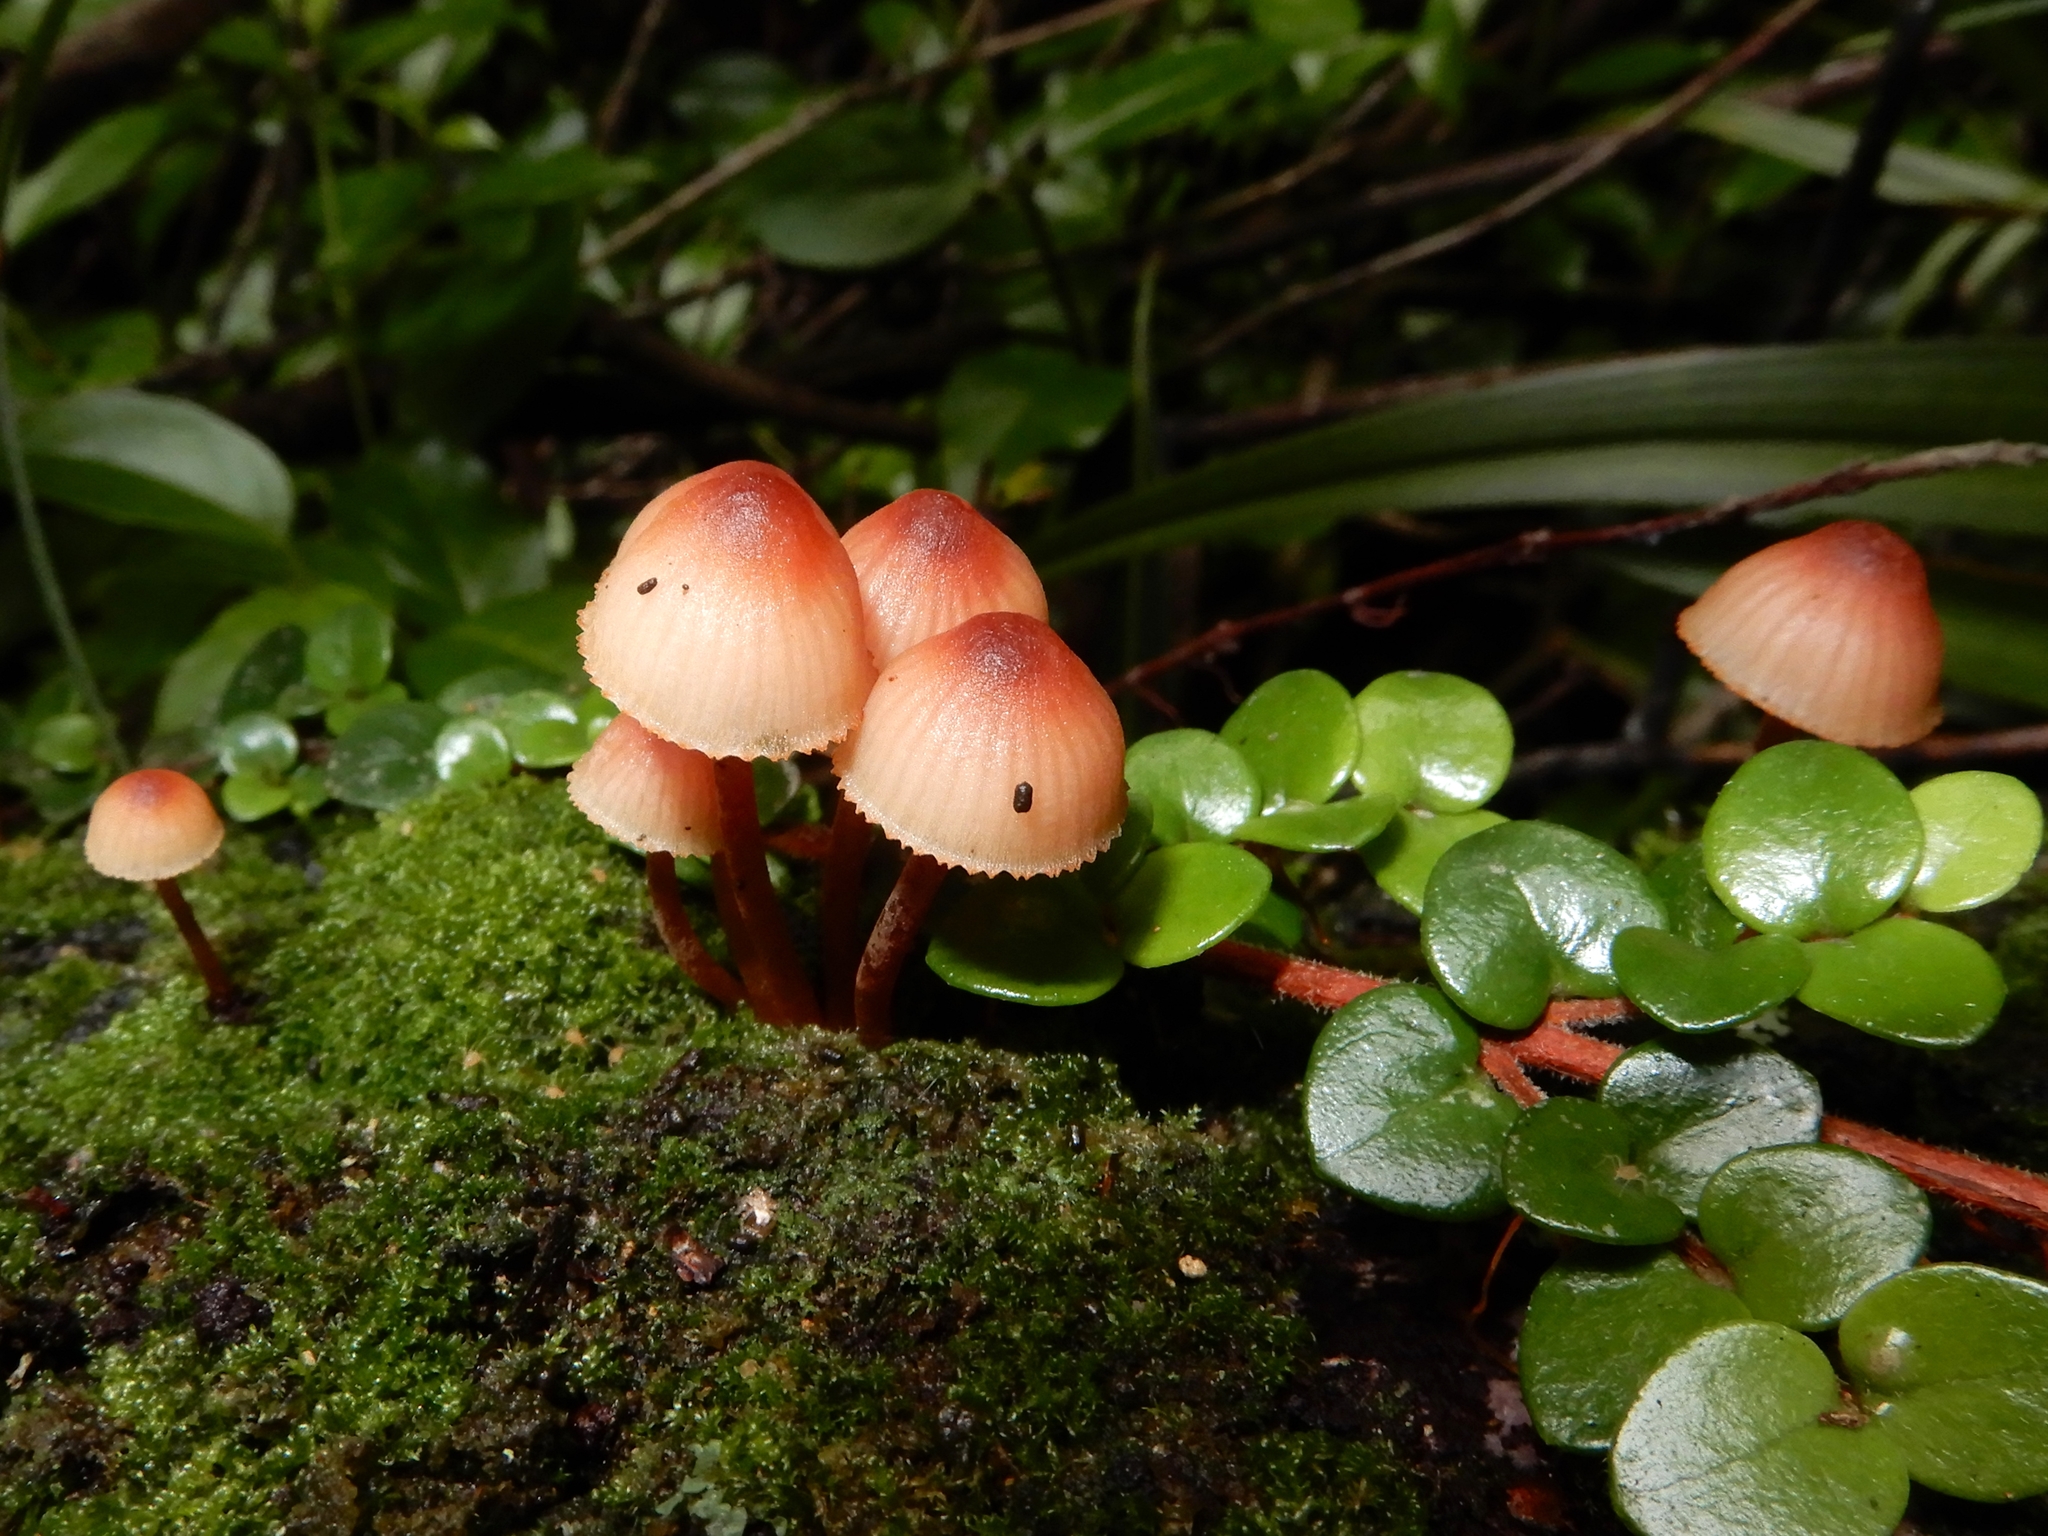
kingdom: Fungi
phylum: Basidiomycota
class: Agaricomycetes
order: Agaricales
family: Mycenaceae
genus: Mycena
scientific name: Mycena parsonsii
